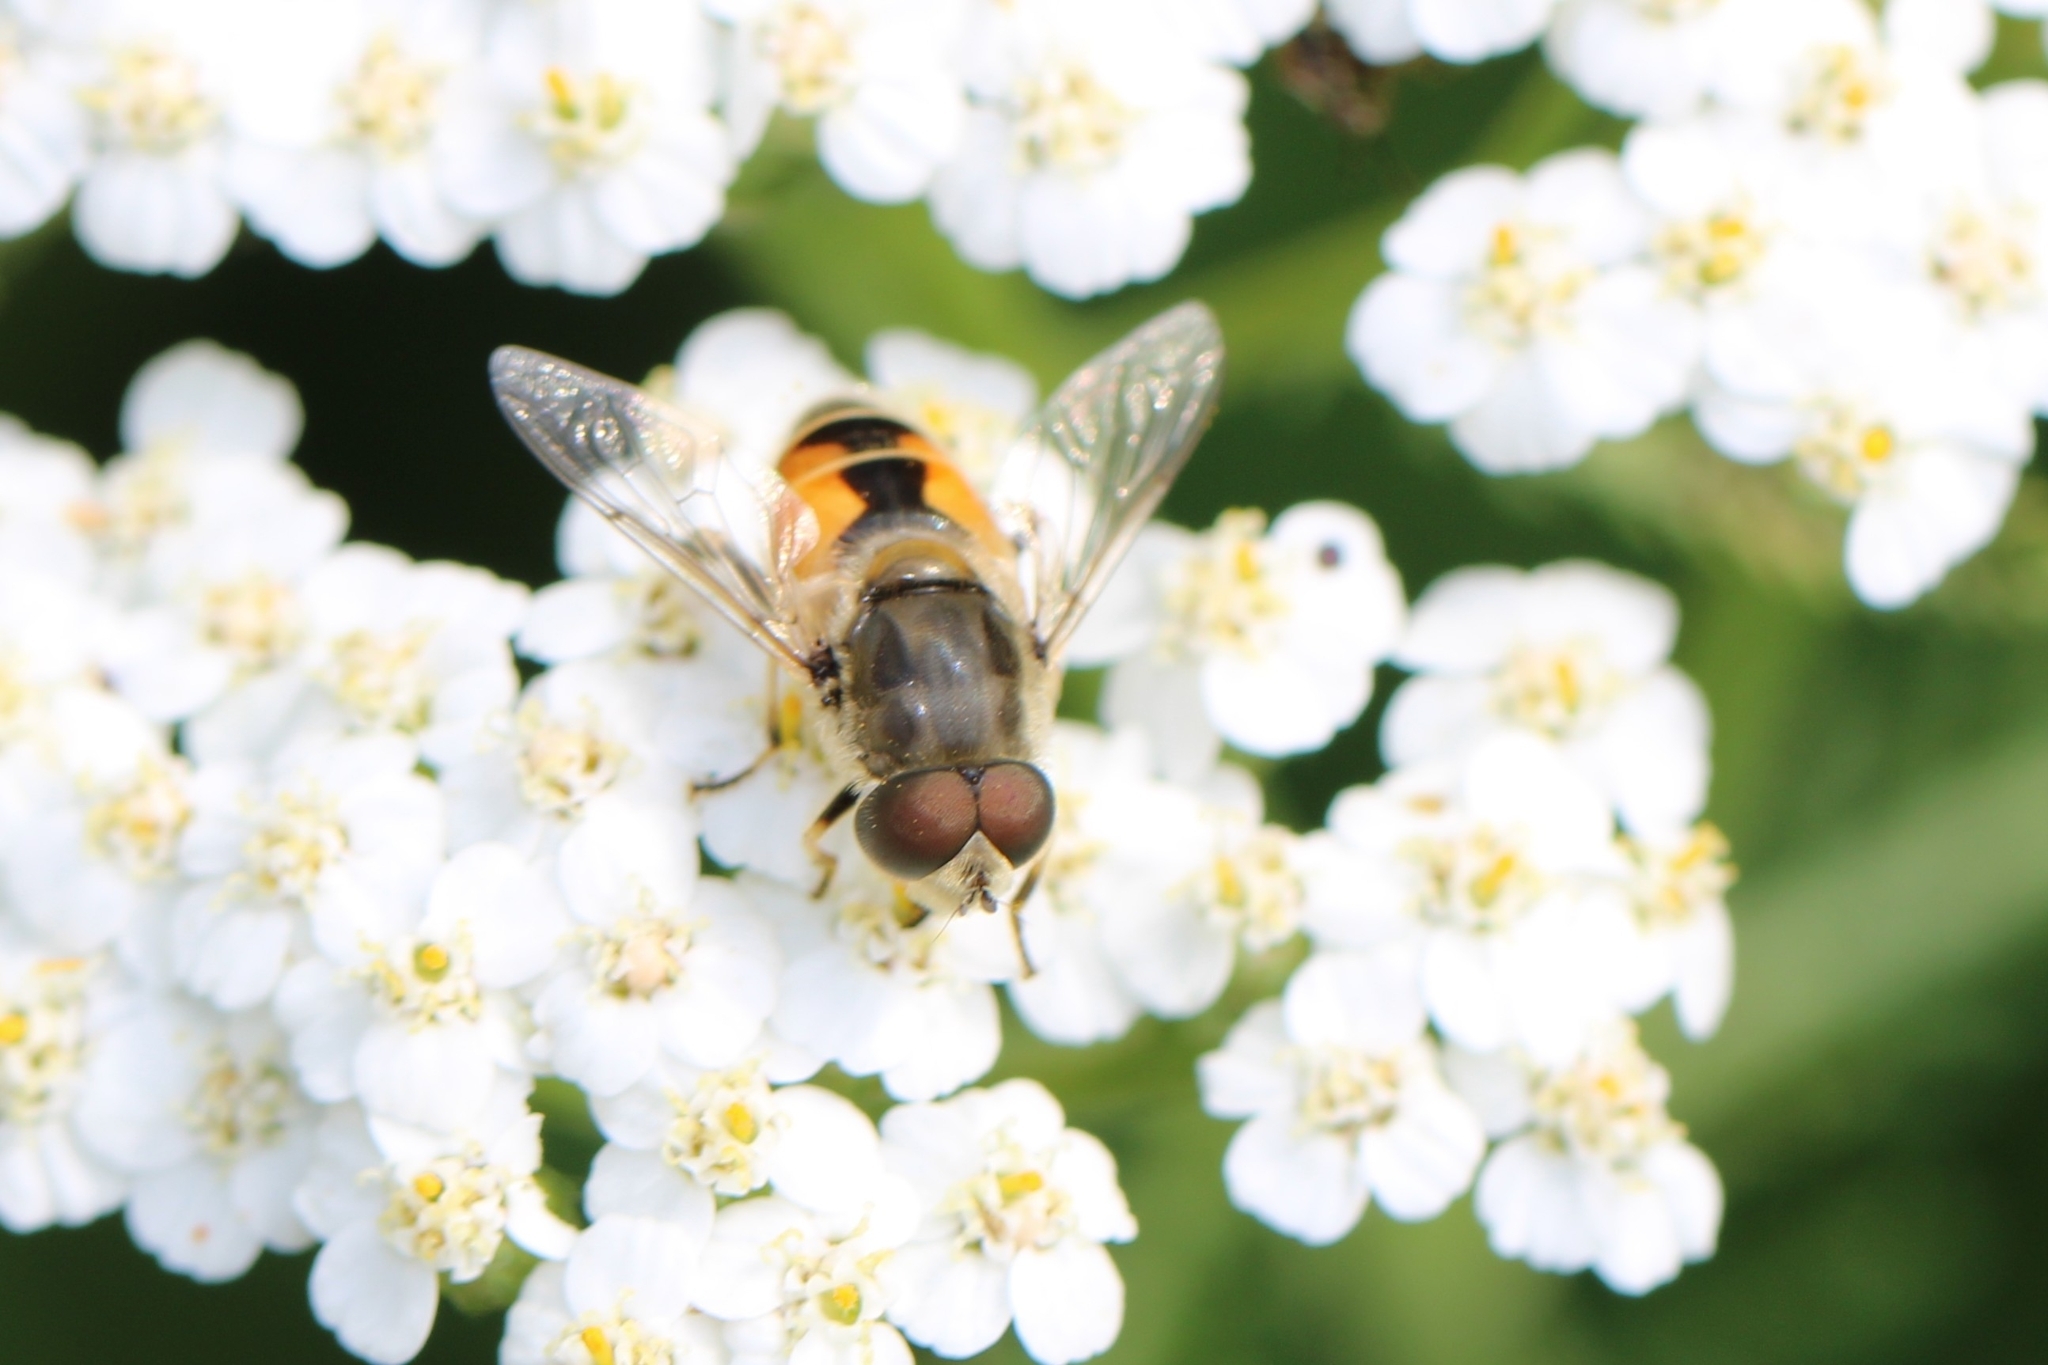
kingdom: Animalia
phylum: Arthropoda
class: Insecta
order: Diptera
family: Syrphidae
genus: Eristalis
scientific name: Eristalis arbustorum
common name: Hover fly
